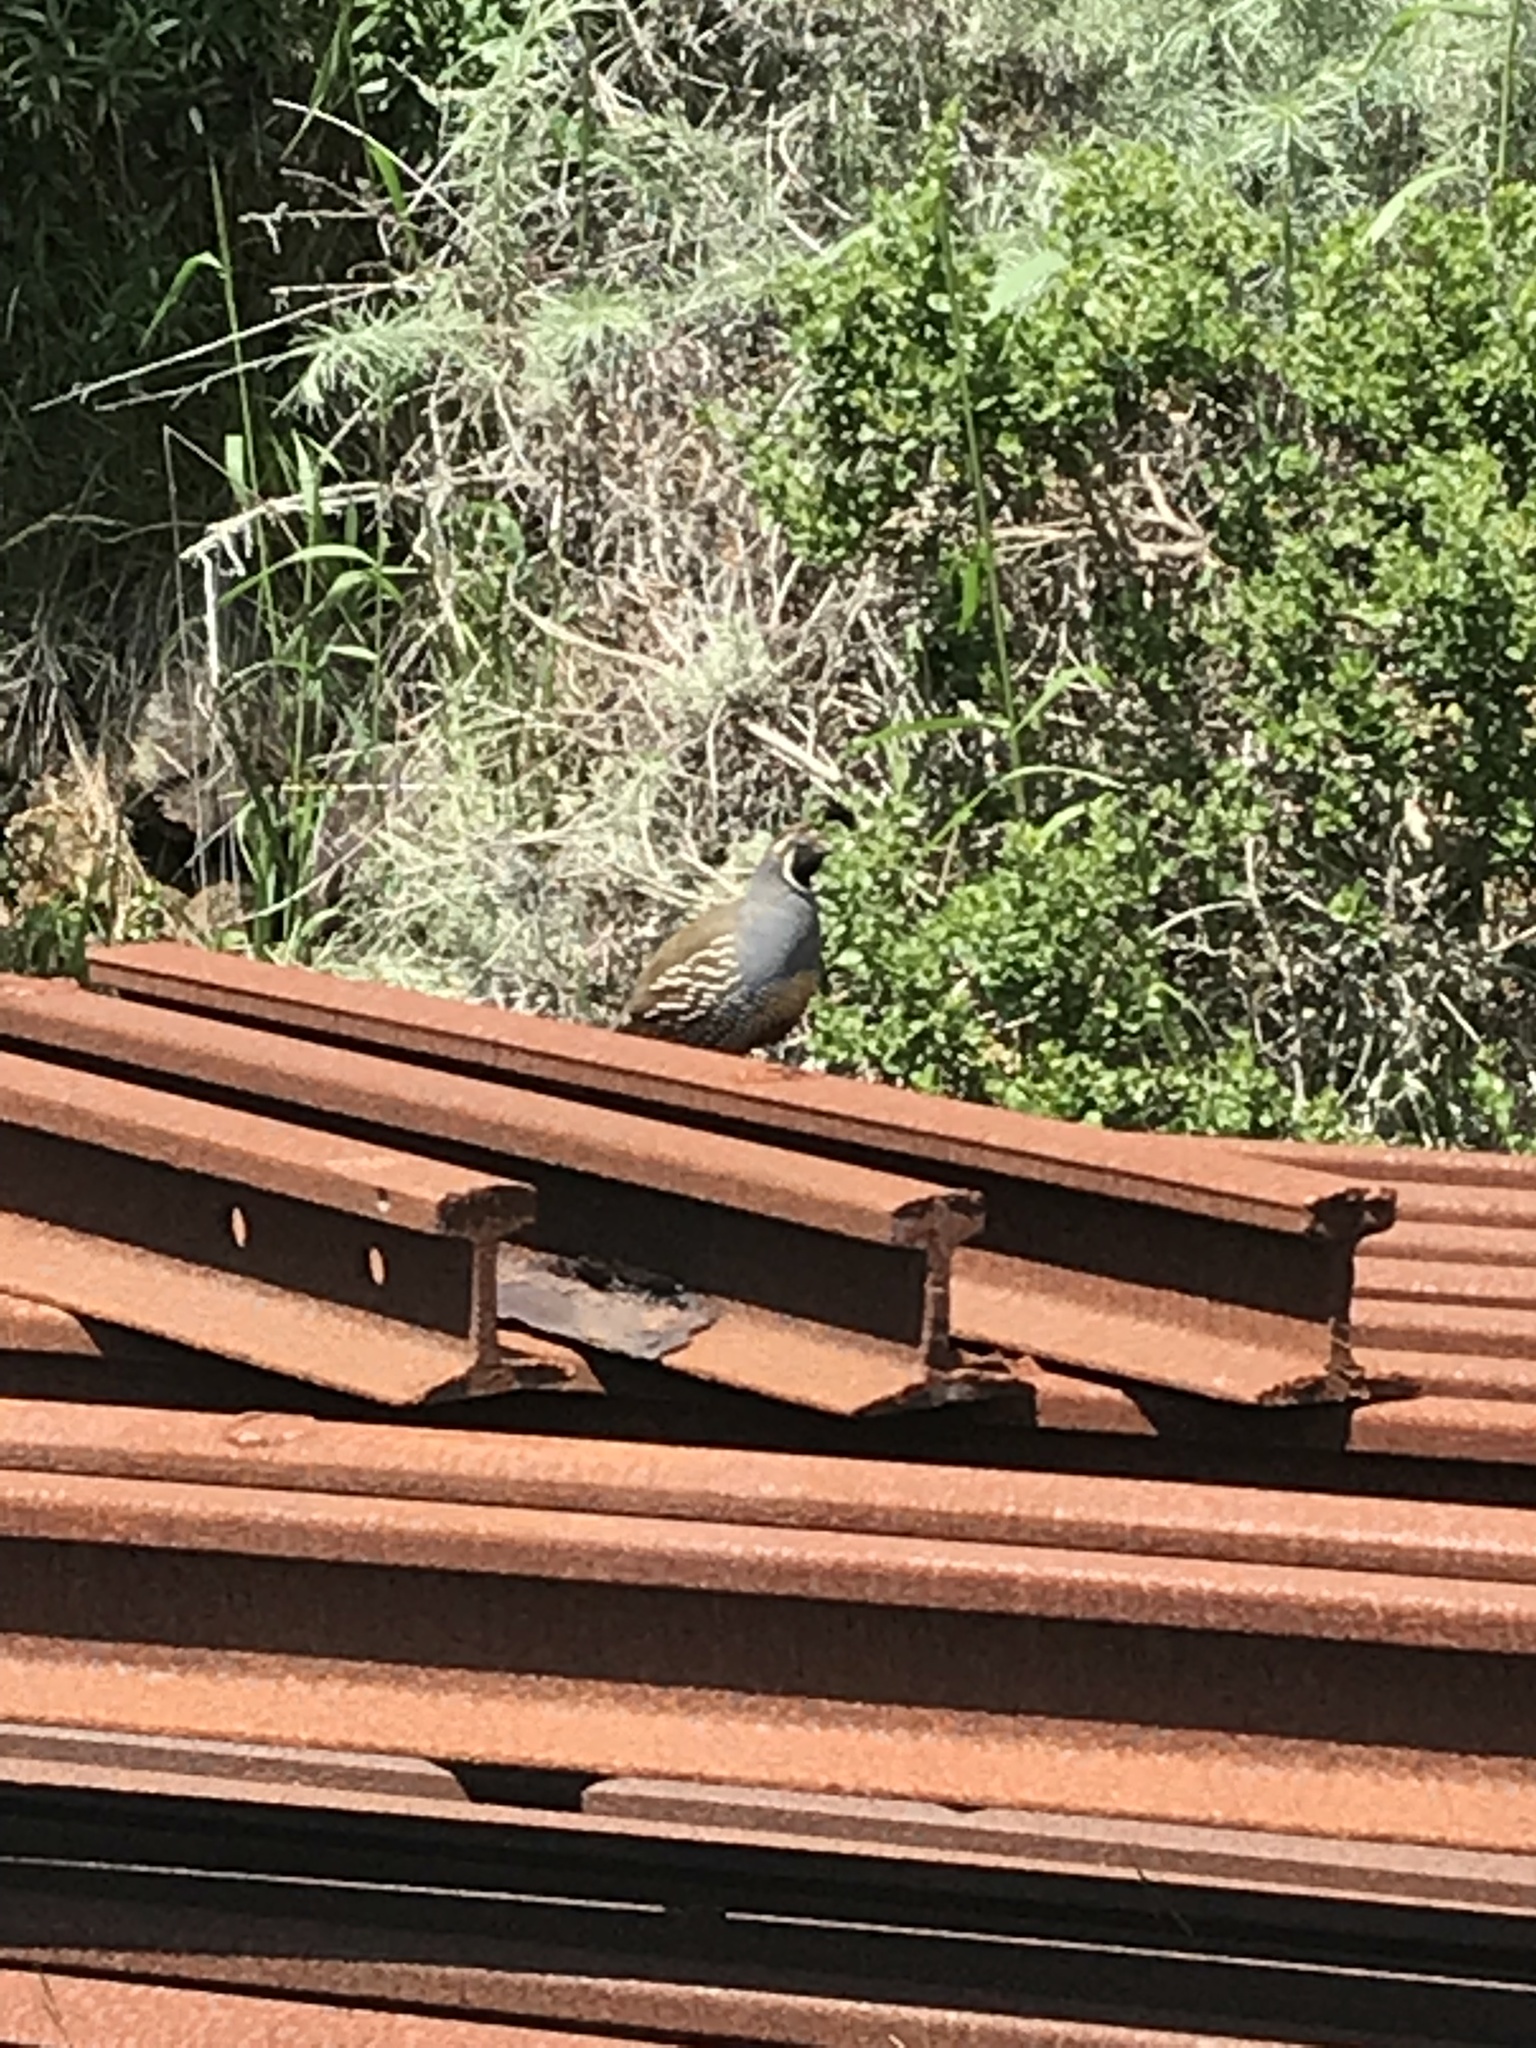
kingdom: Animalia
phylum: Chordata
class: Aves
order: Galliformes
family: Odontophoridae
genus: Callipepla
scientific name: Callipepla californica
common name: California quail
